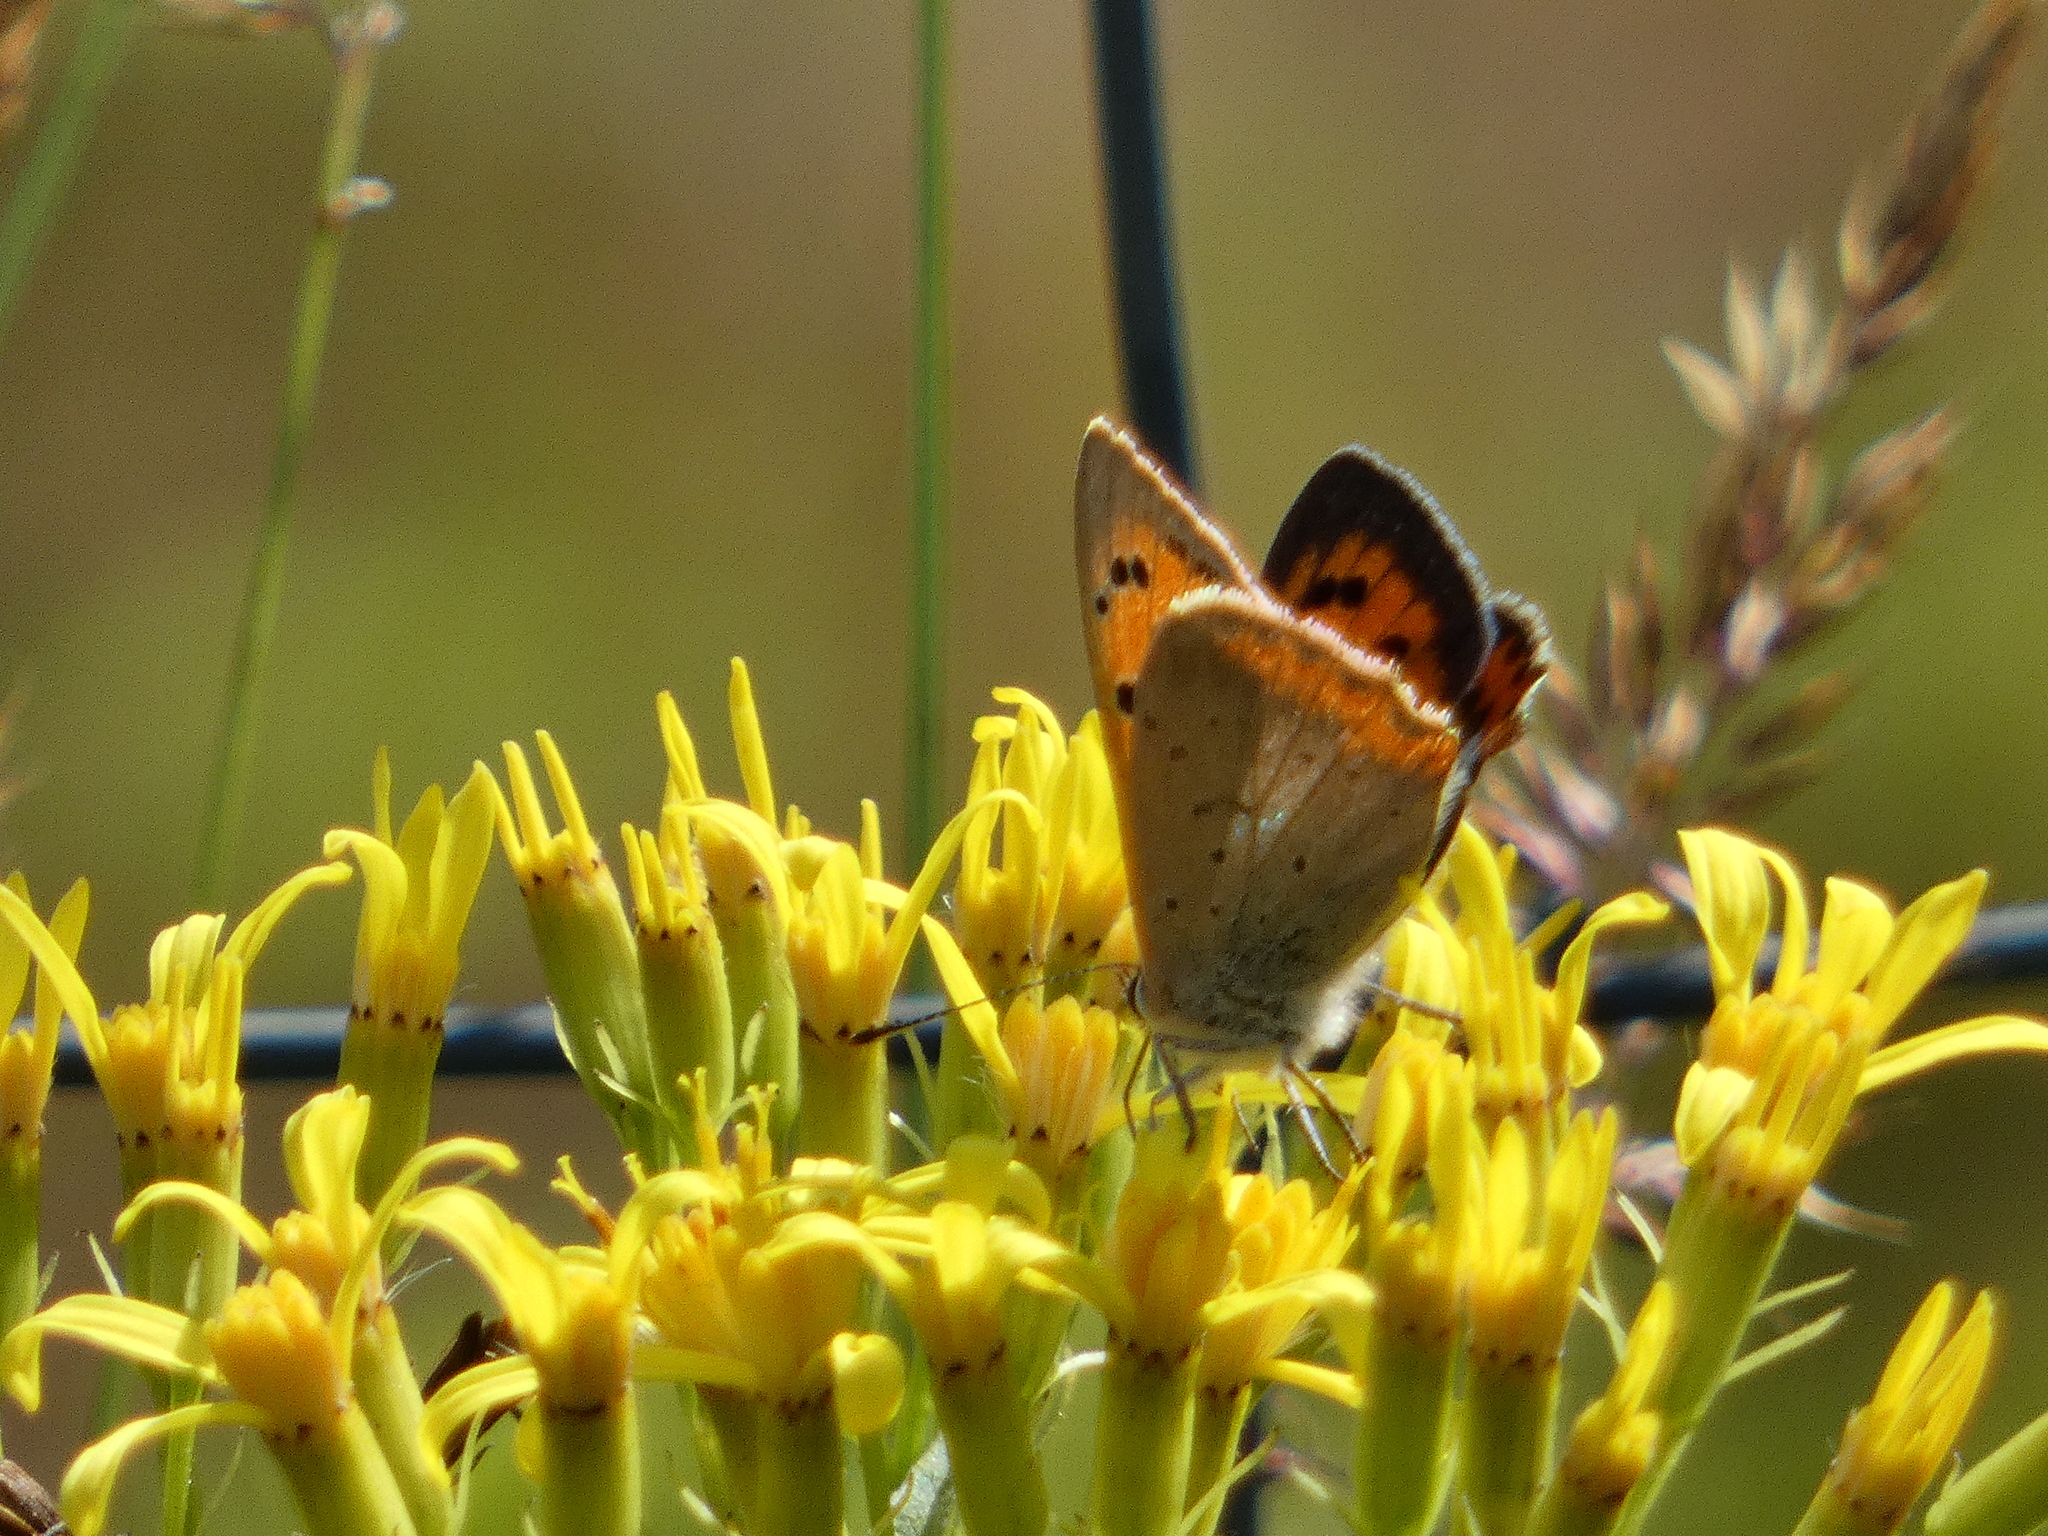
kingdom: Animalia
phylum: Arthropoda
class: Insecta
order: Lepidoptera
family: Lycaenidae
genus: Lycaena
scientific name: Lycaena phlaeas
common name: Small copper
